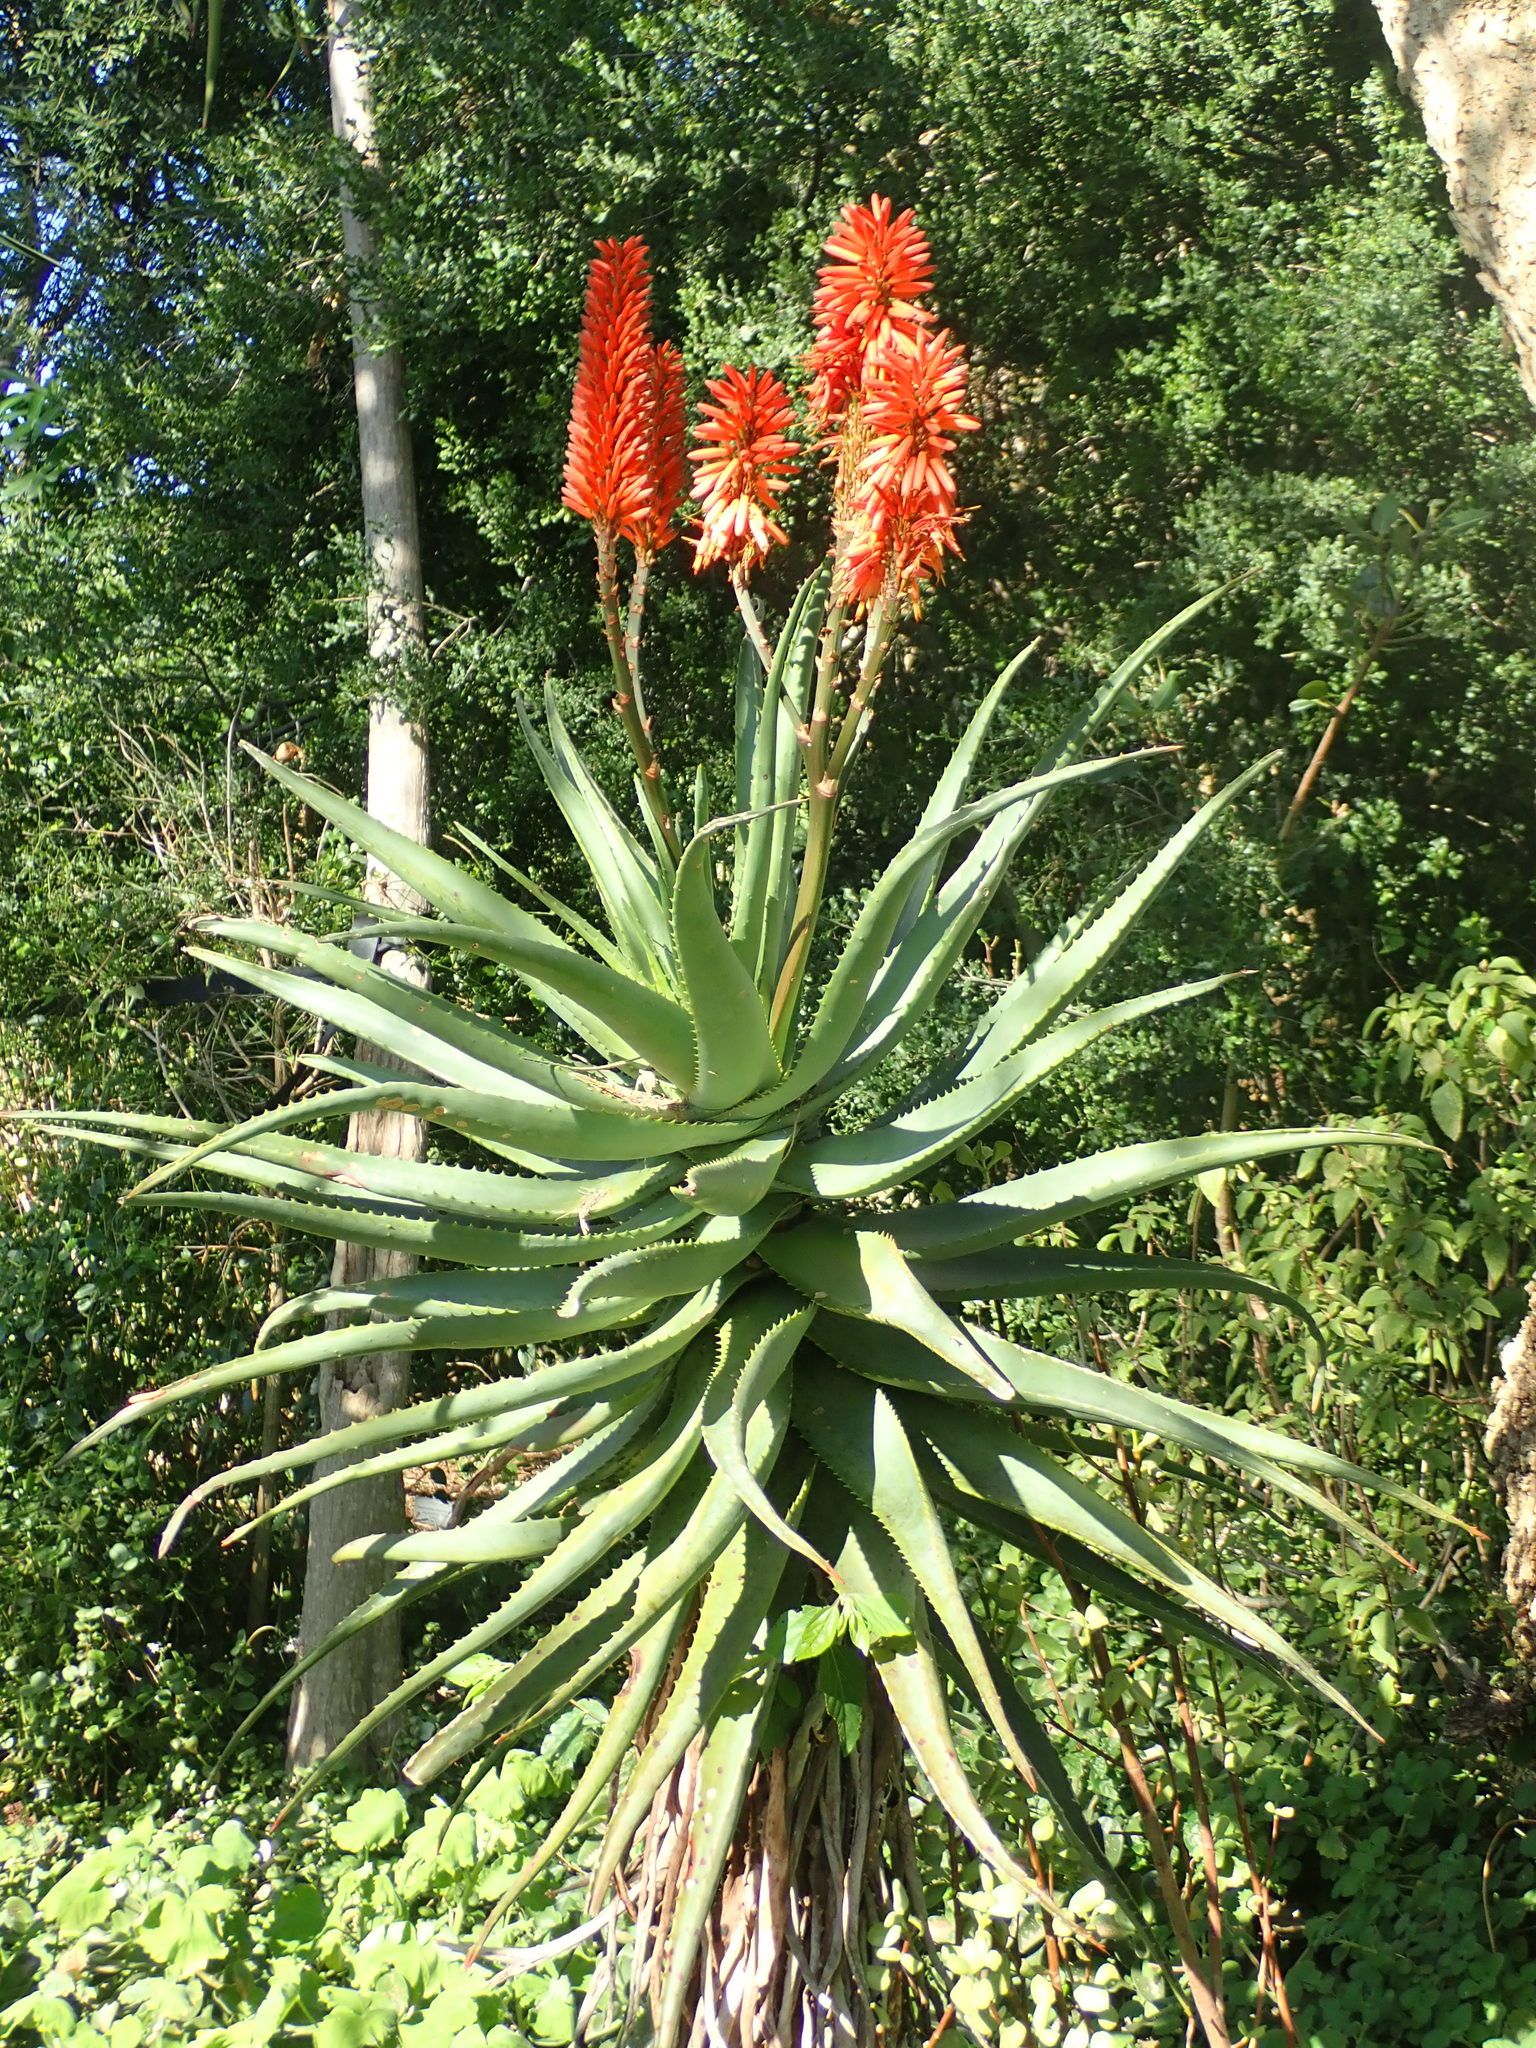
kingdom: Plantae
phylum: Tracheophyta
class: Liliopsida
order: Asparagales
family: Asphodelaceae
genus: Aloe
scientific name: Aloe arborescens
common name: Candelabra aloe
